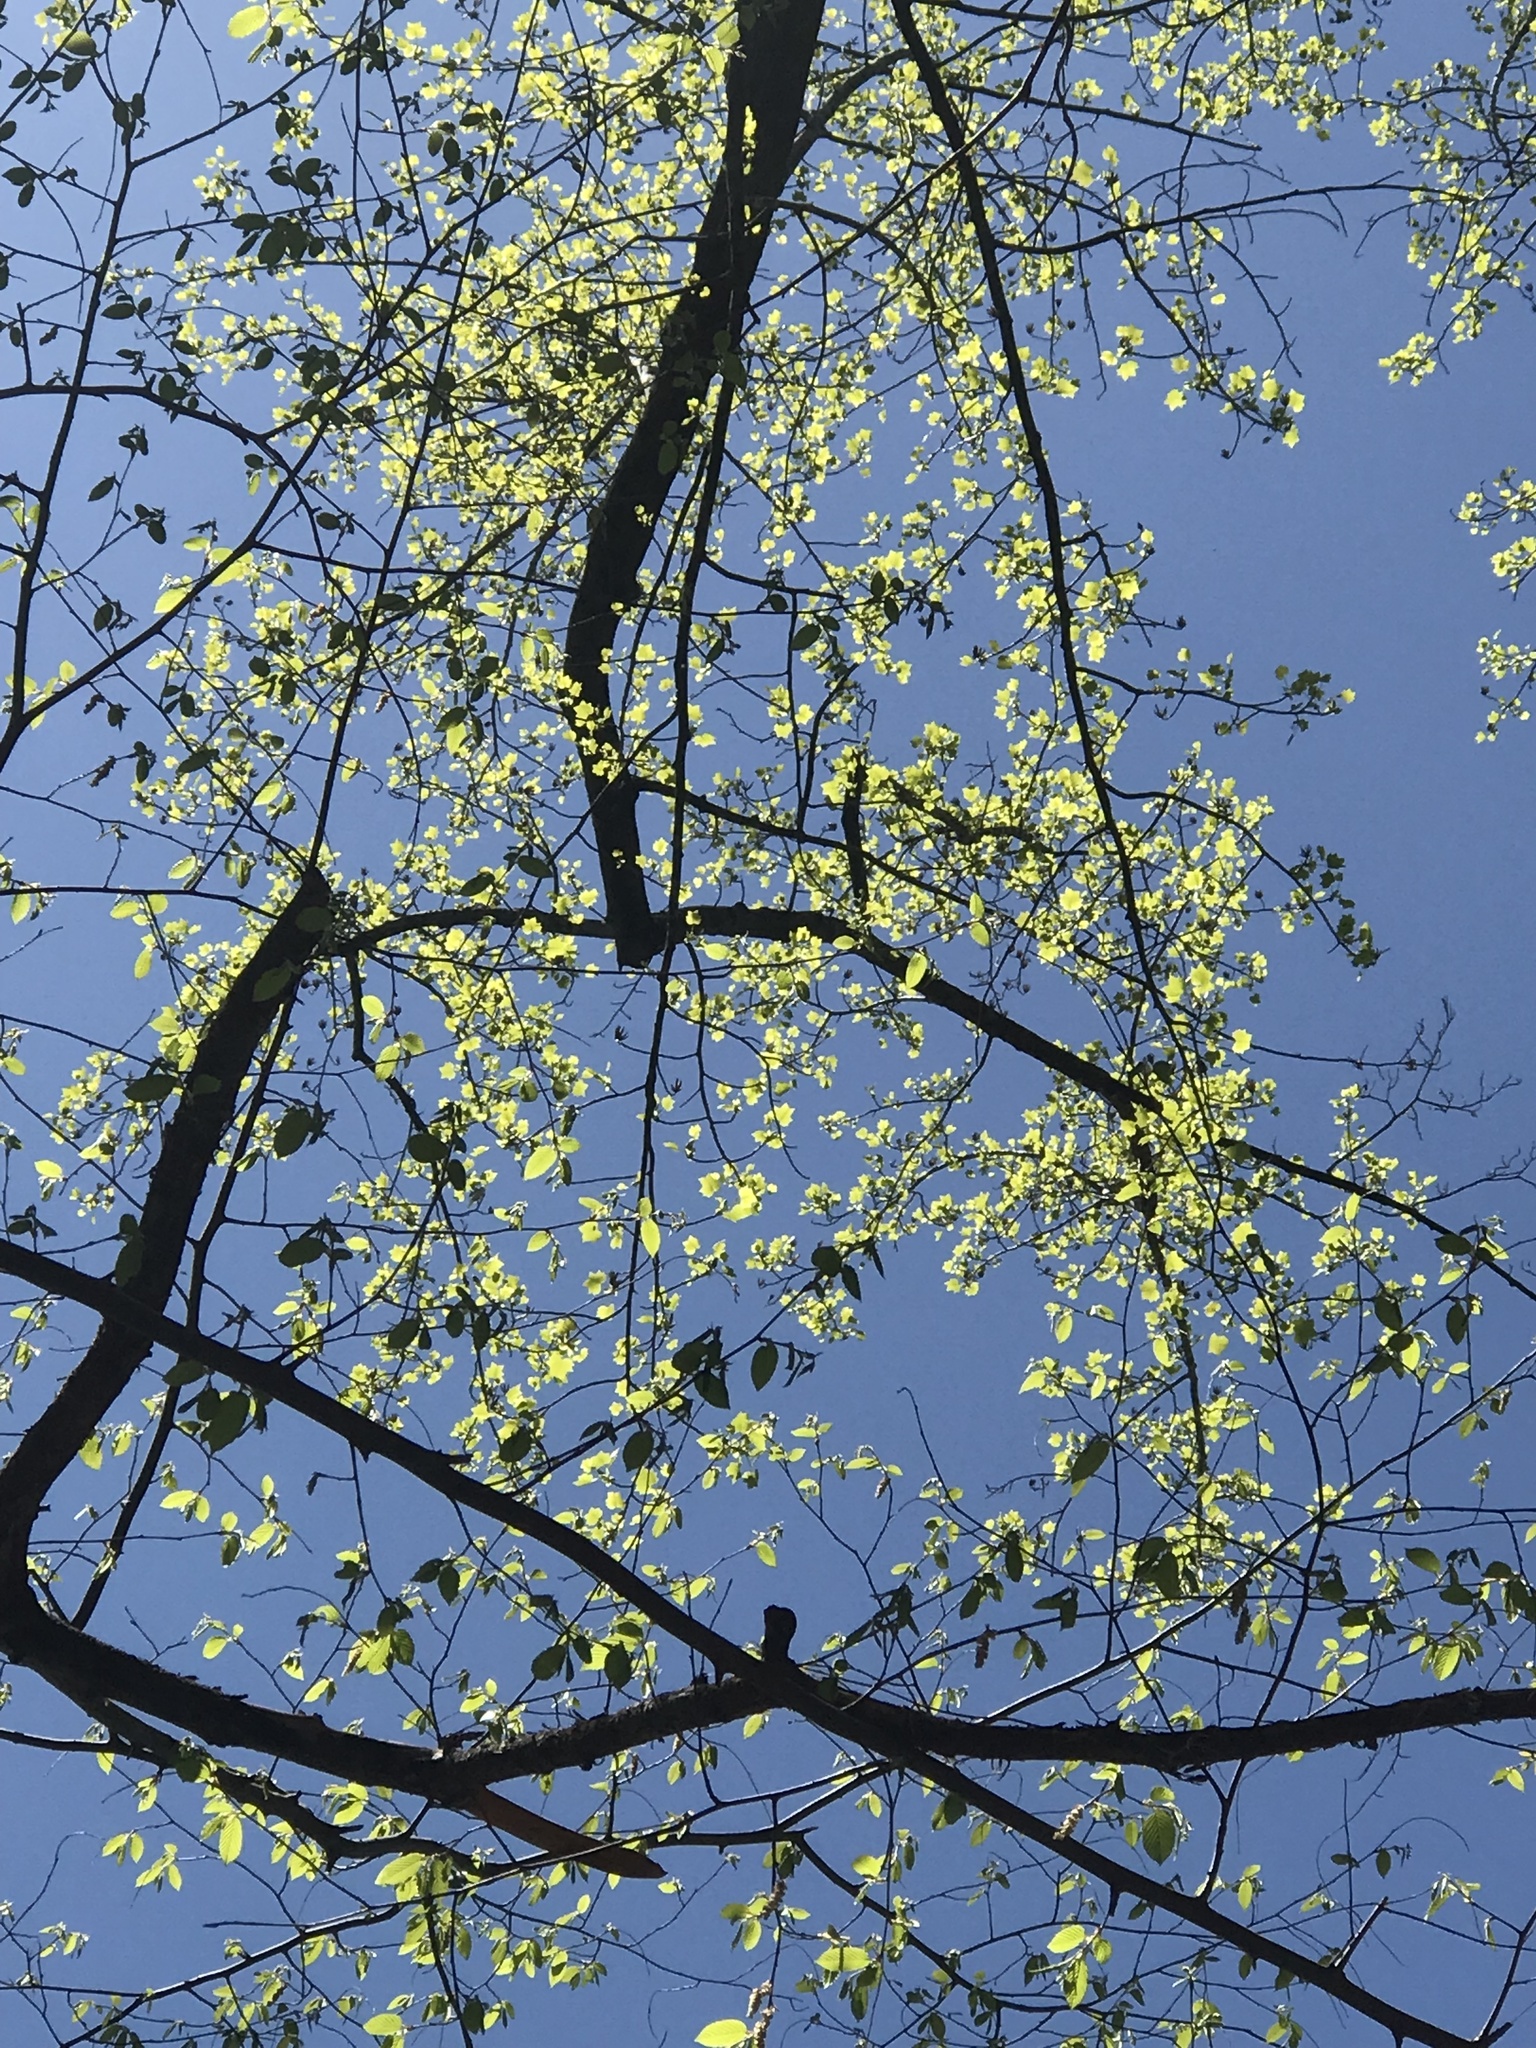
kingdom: Plantae
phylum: Tracheophyta
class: Magnoliopsida
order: Magnoliales
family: Magnoliaceae
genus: Liriodendron
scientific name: Liriodendron tulipifera
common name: Tulip tree
